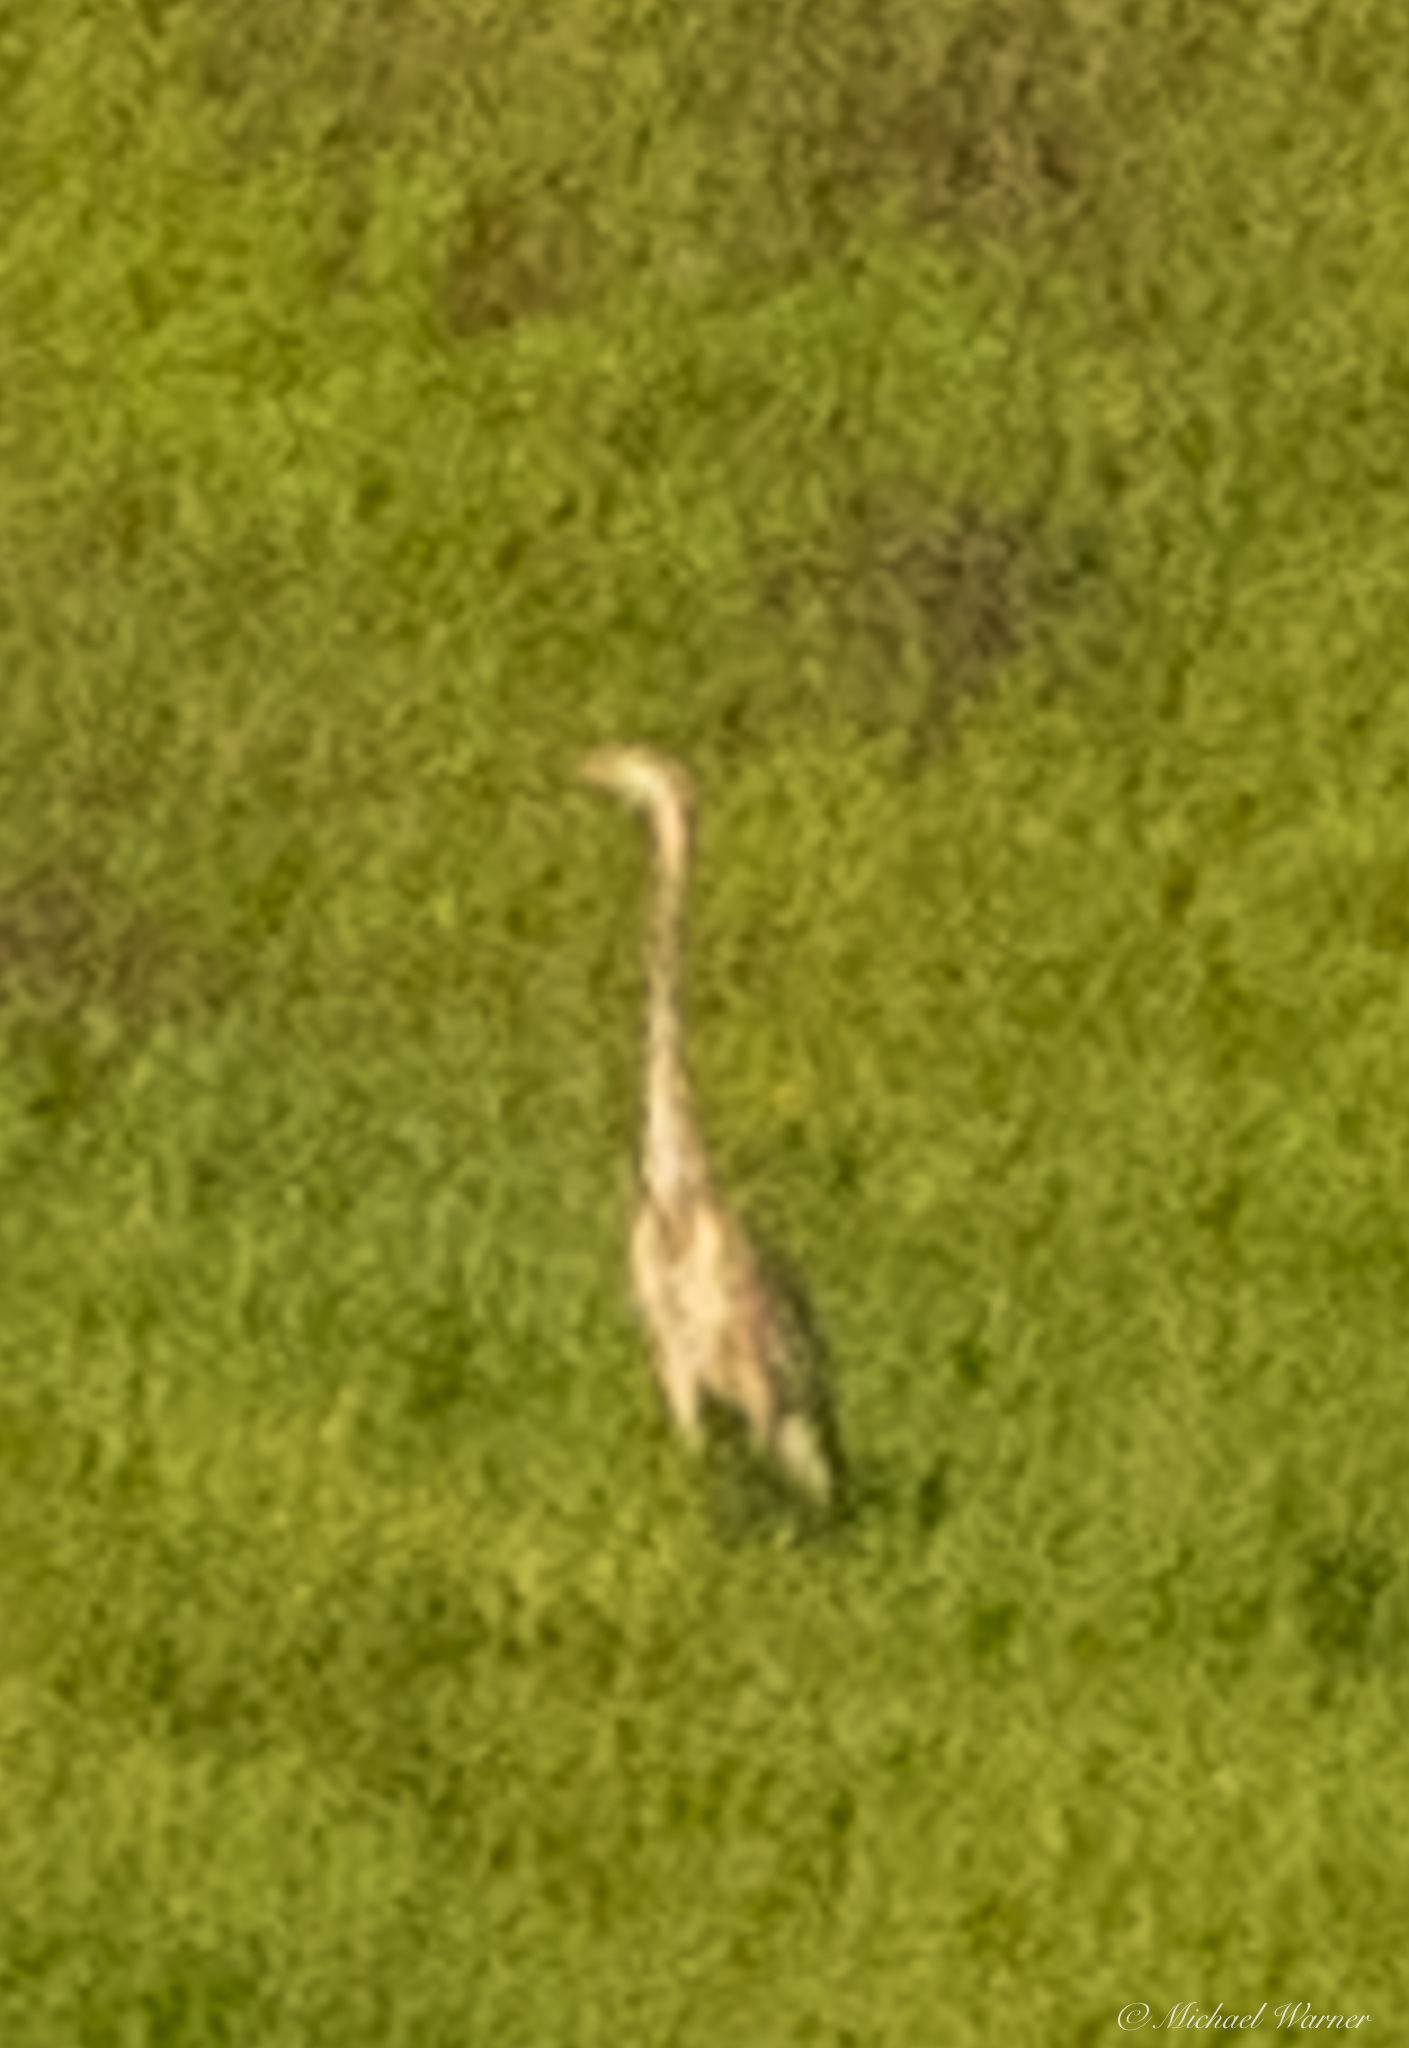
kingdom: Animalia
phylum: Chordata
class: Aves
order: Pelecaniformes
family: Ardeidae
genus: Ardea
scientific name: Ardea herodias
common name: Great blue heron
